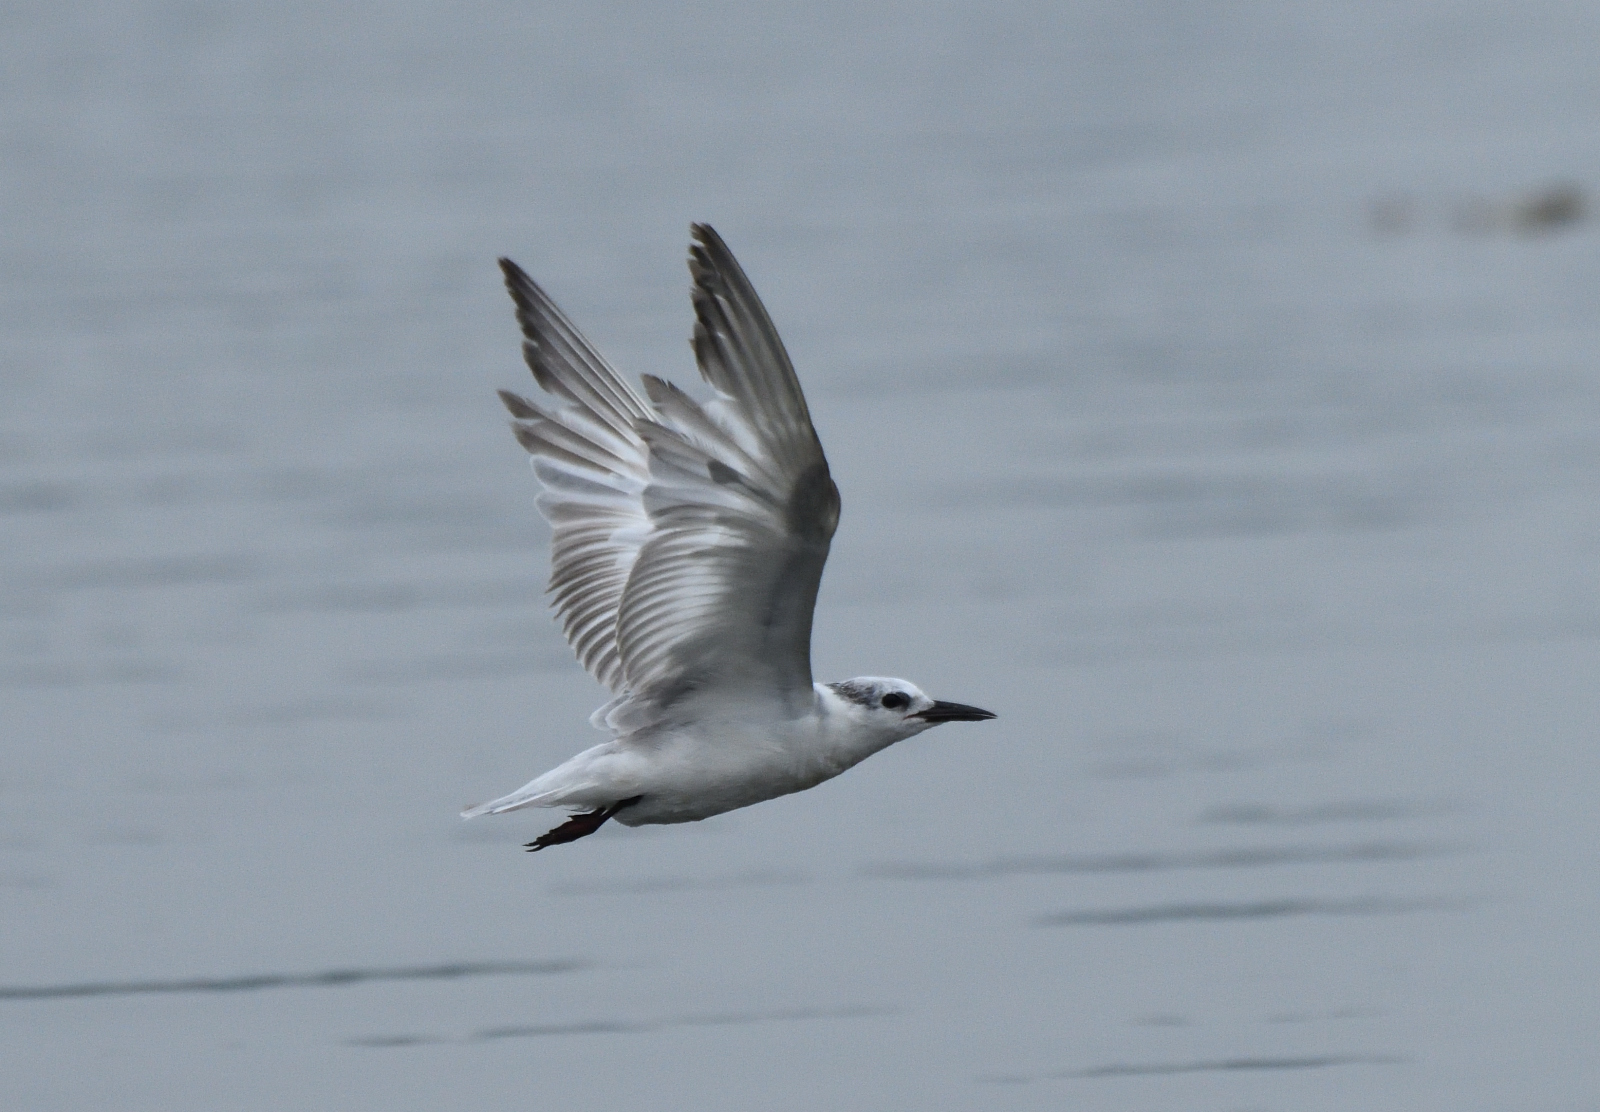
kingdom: Animalia
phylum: Chordata
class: Aves
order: Charadriiformes
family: Laridae
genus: Gelochelidon
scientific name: Gelochelidon nilotica
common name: Gull-billed tern
